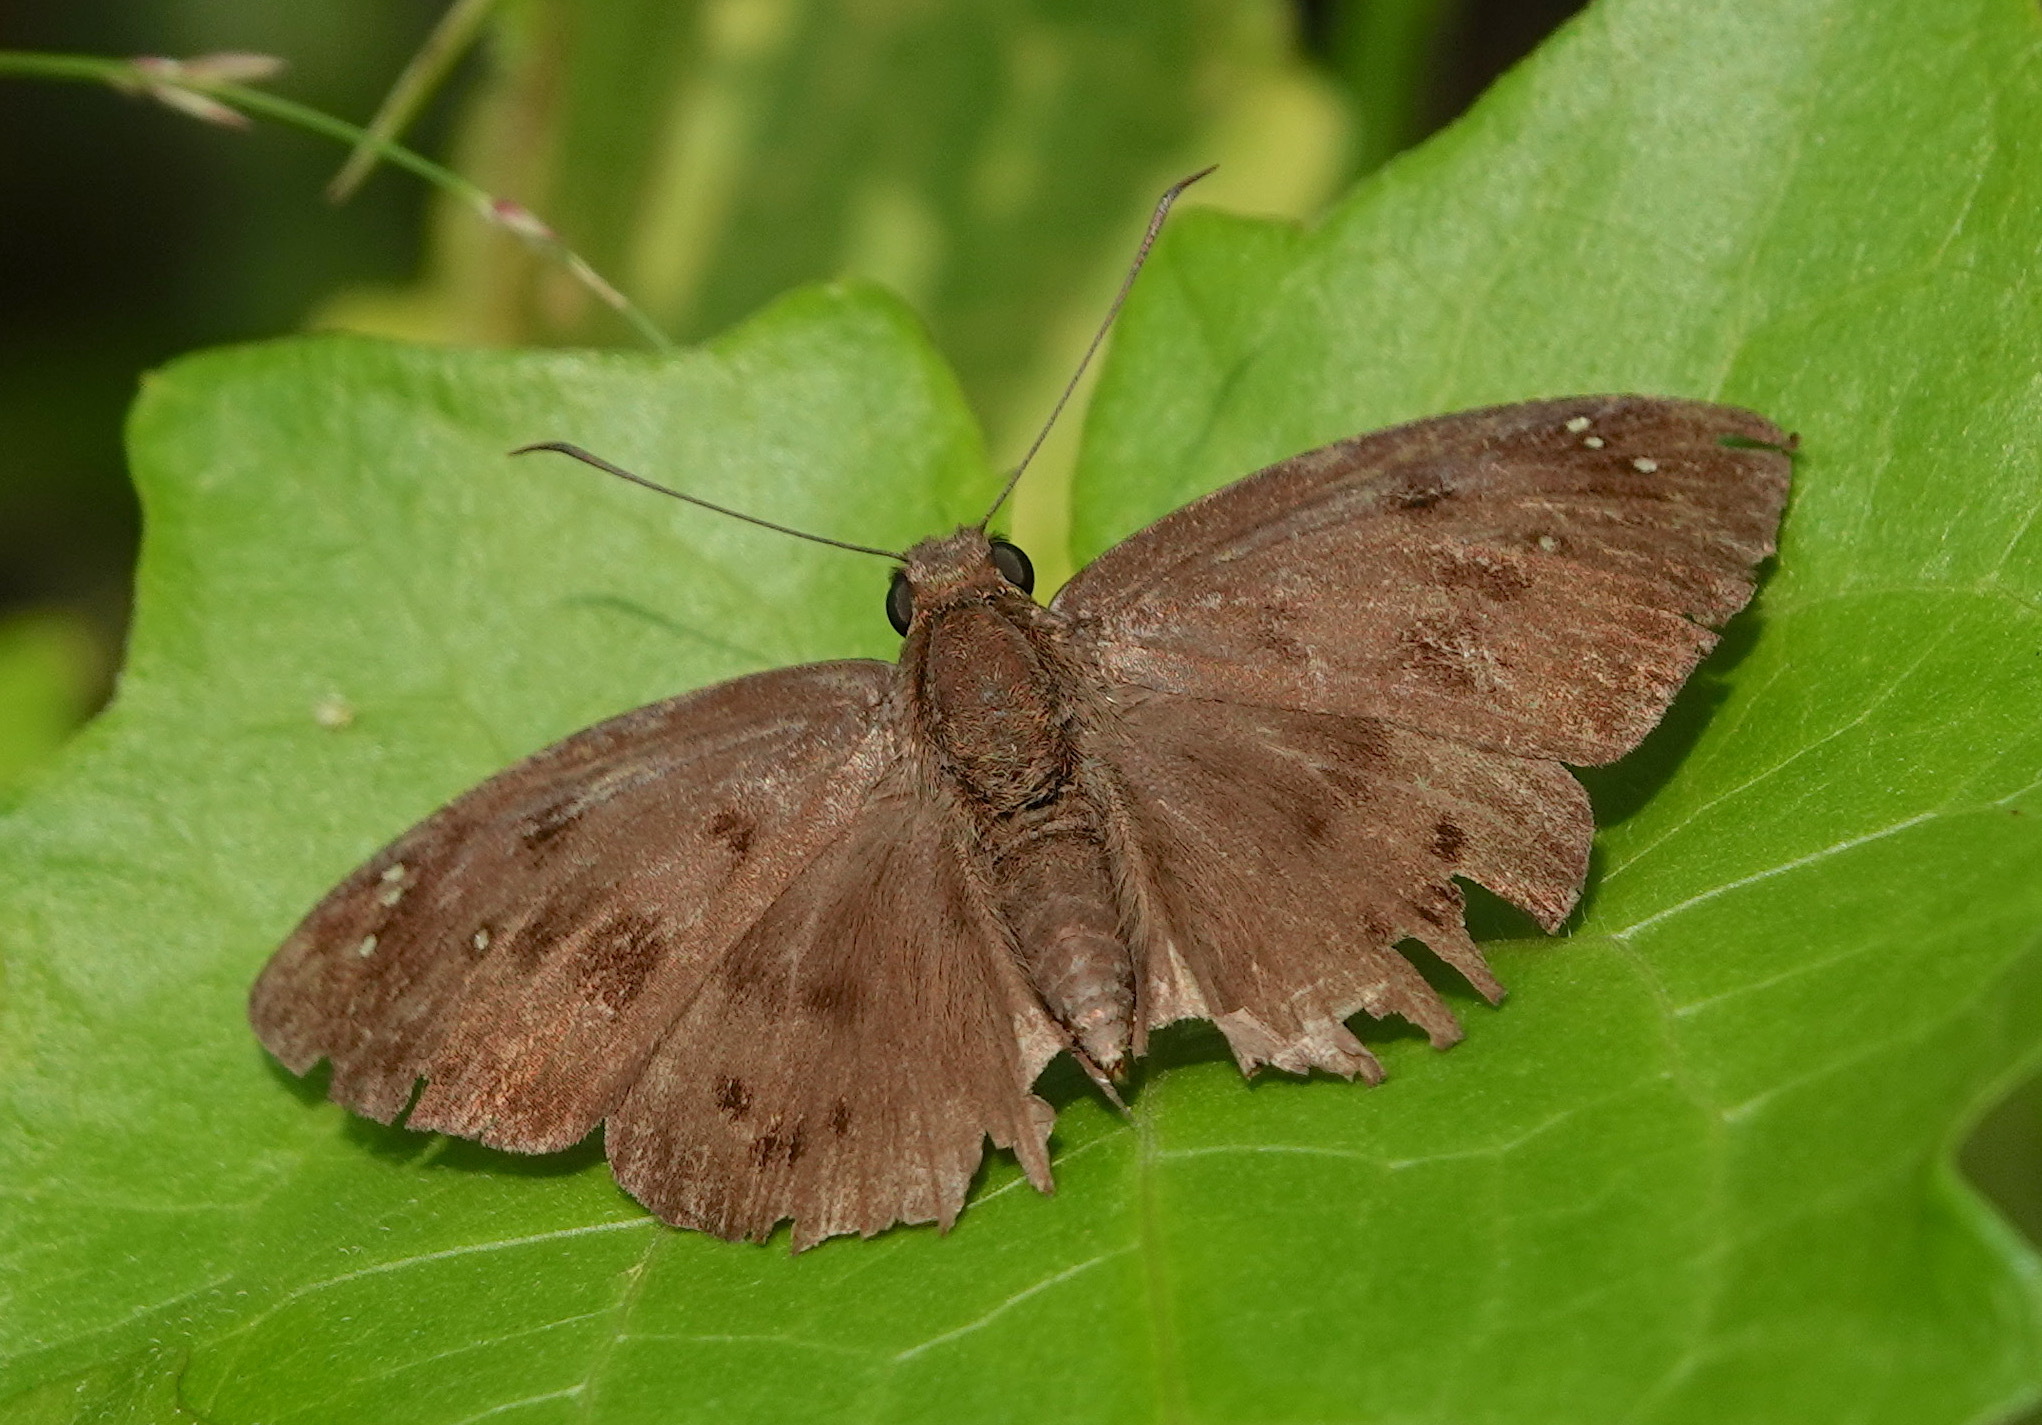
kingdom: Animalia
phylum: Arthropoda
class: Insecta
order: Lepidoptera
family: Hesperiidae
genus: Tagiades
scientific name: Tagiades japetus
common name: Pied flat
